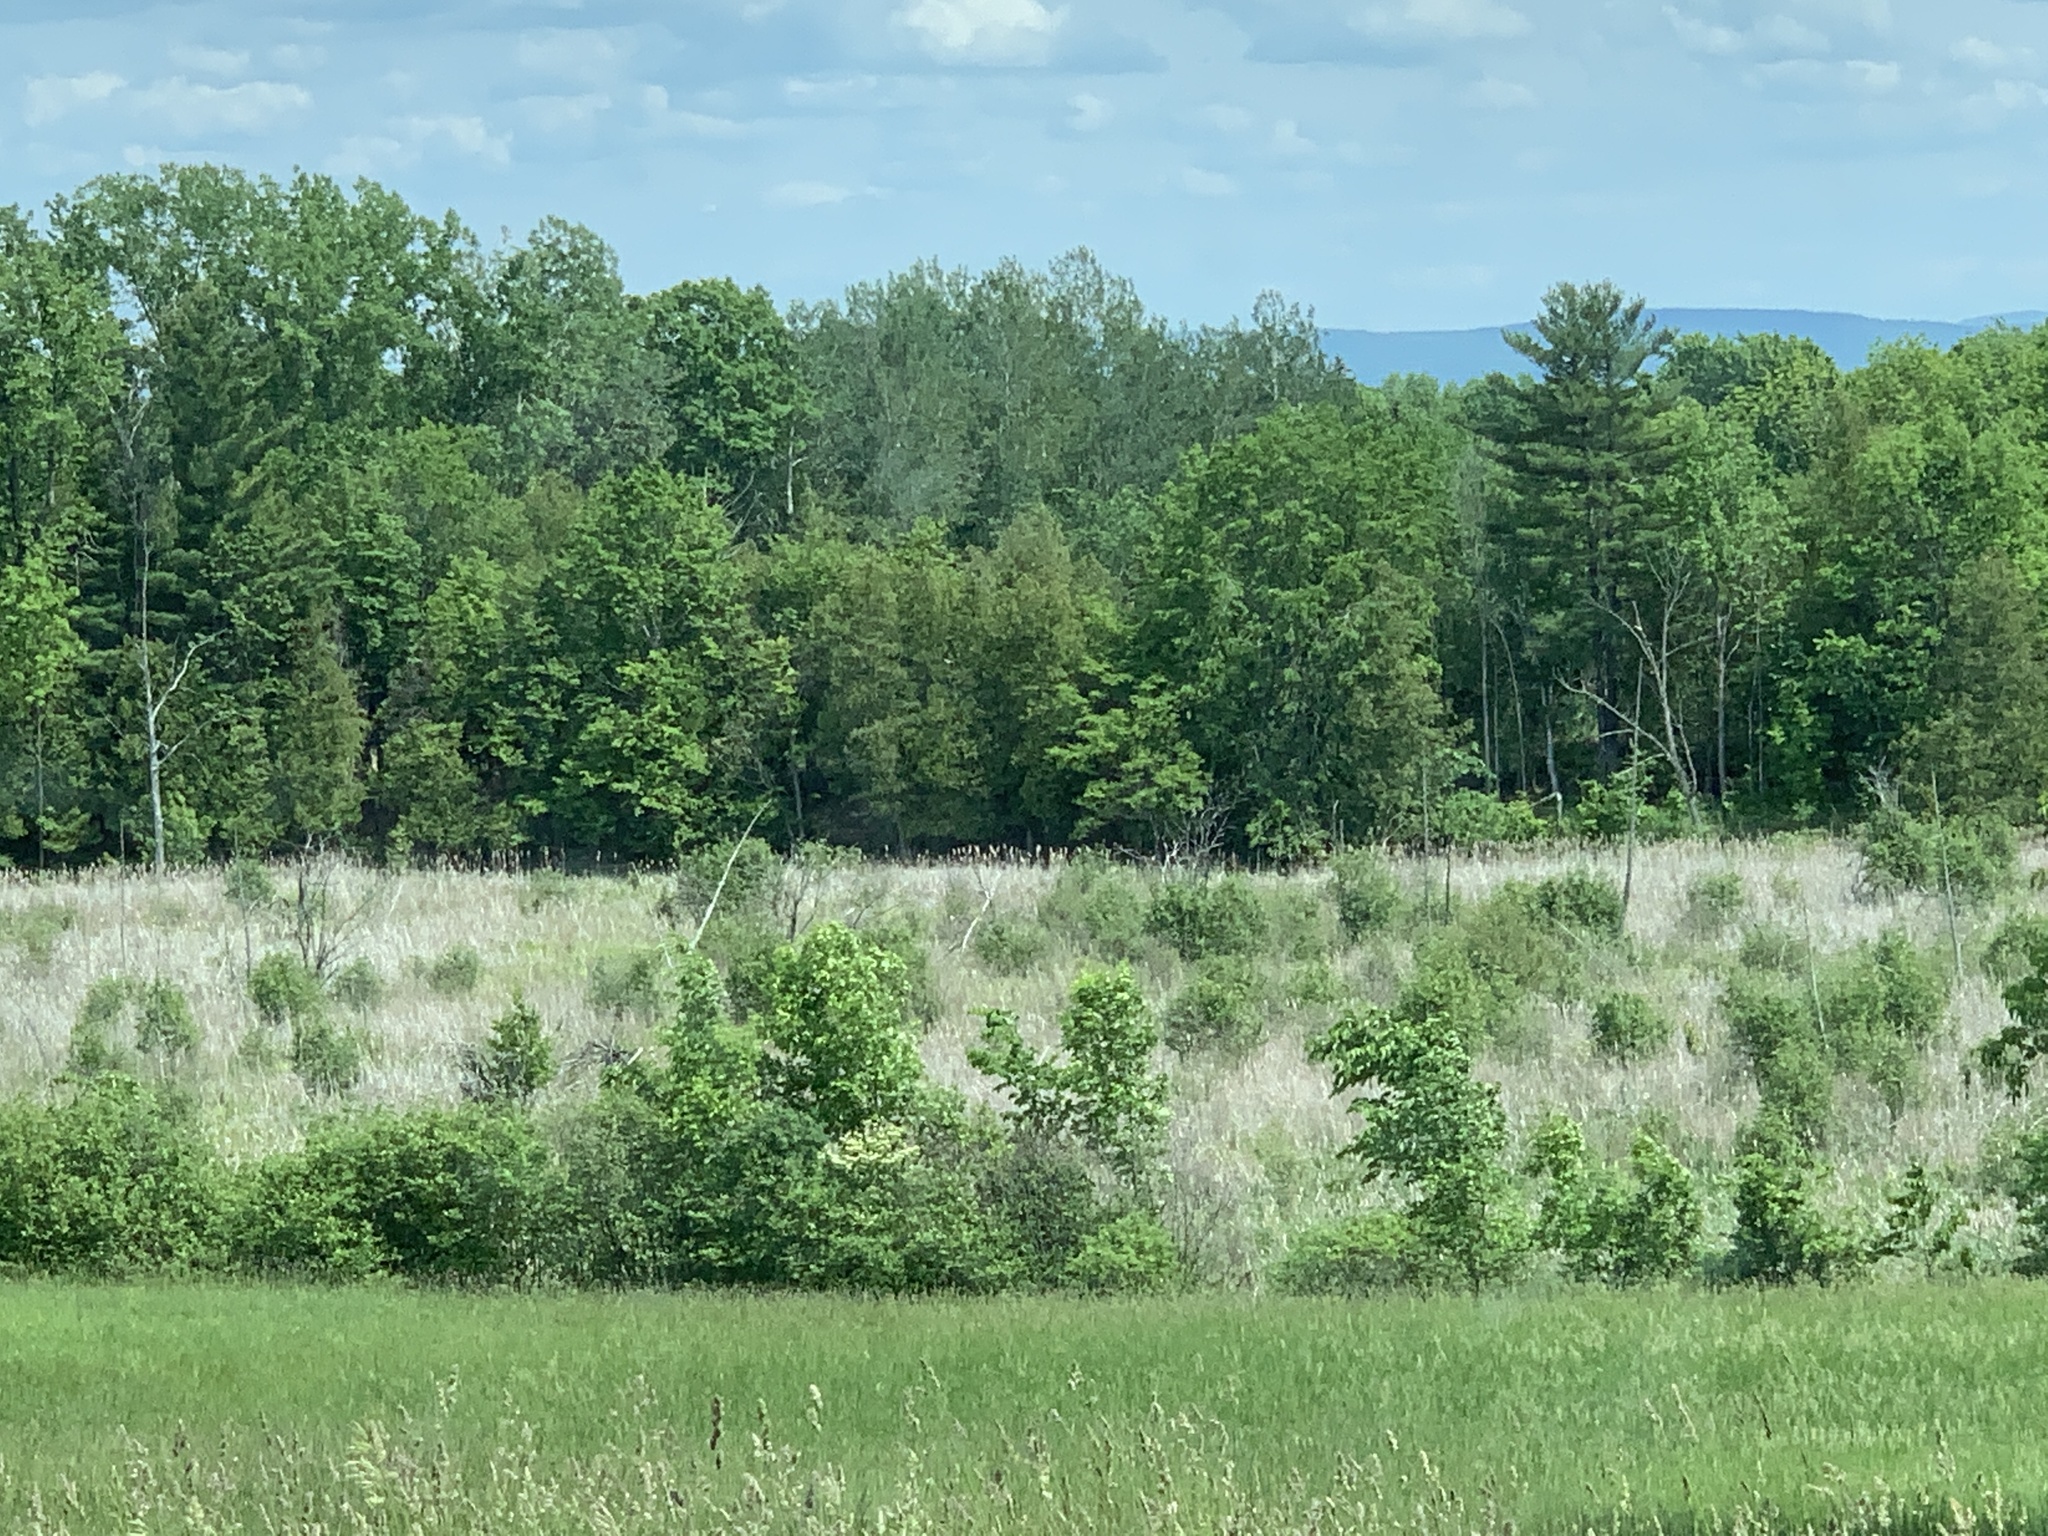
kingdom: Plantae
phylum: Tracheophyta
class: Pinopsida
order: Pinales
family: Pinaceae
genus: Pinus
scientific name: Pinus strobus
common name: Weymouth pine
